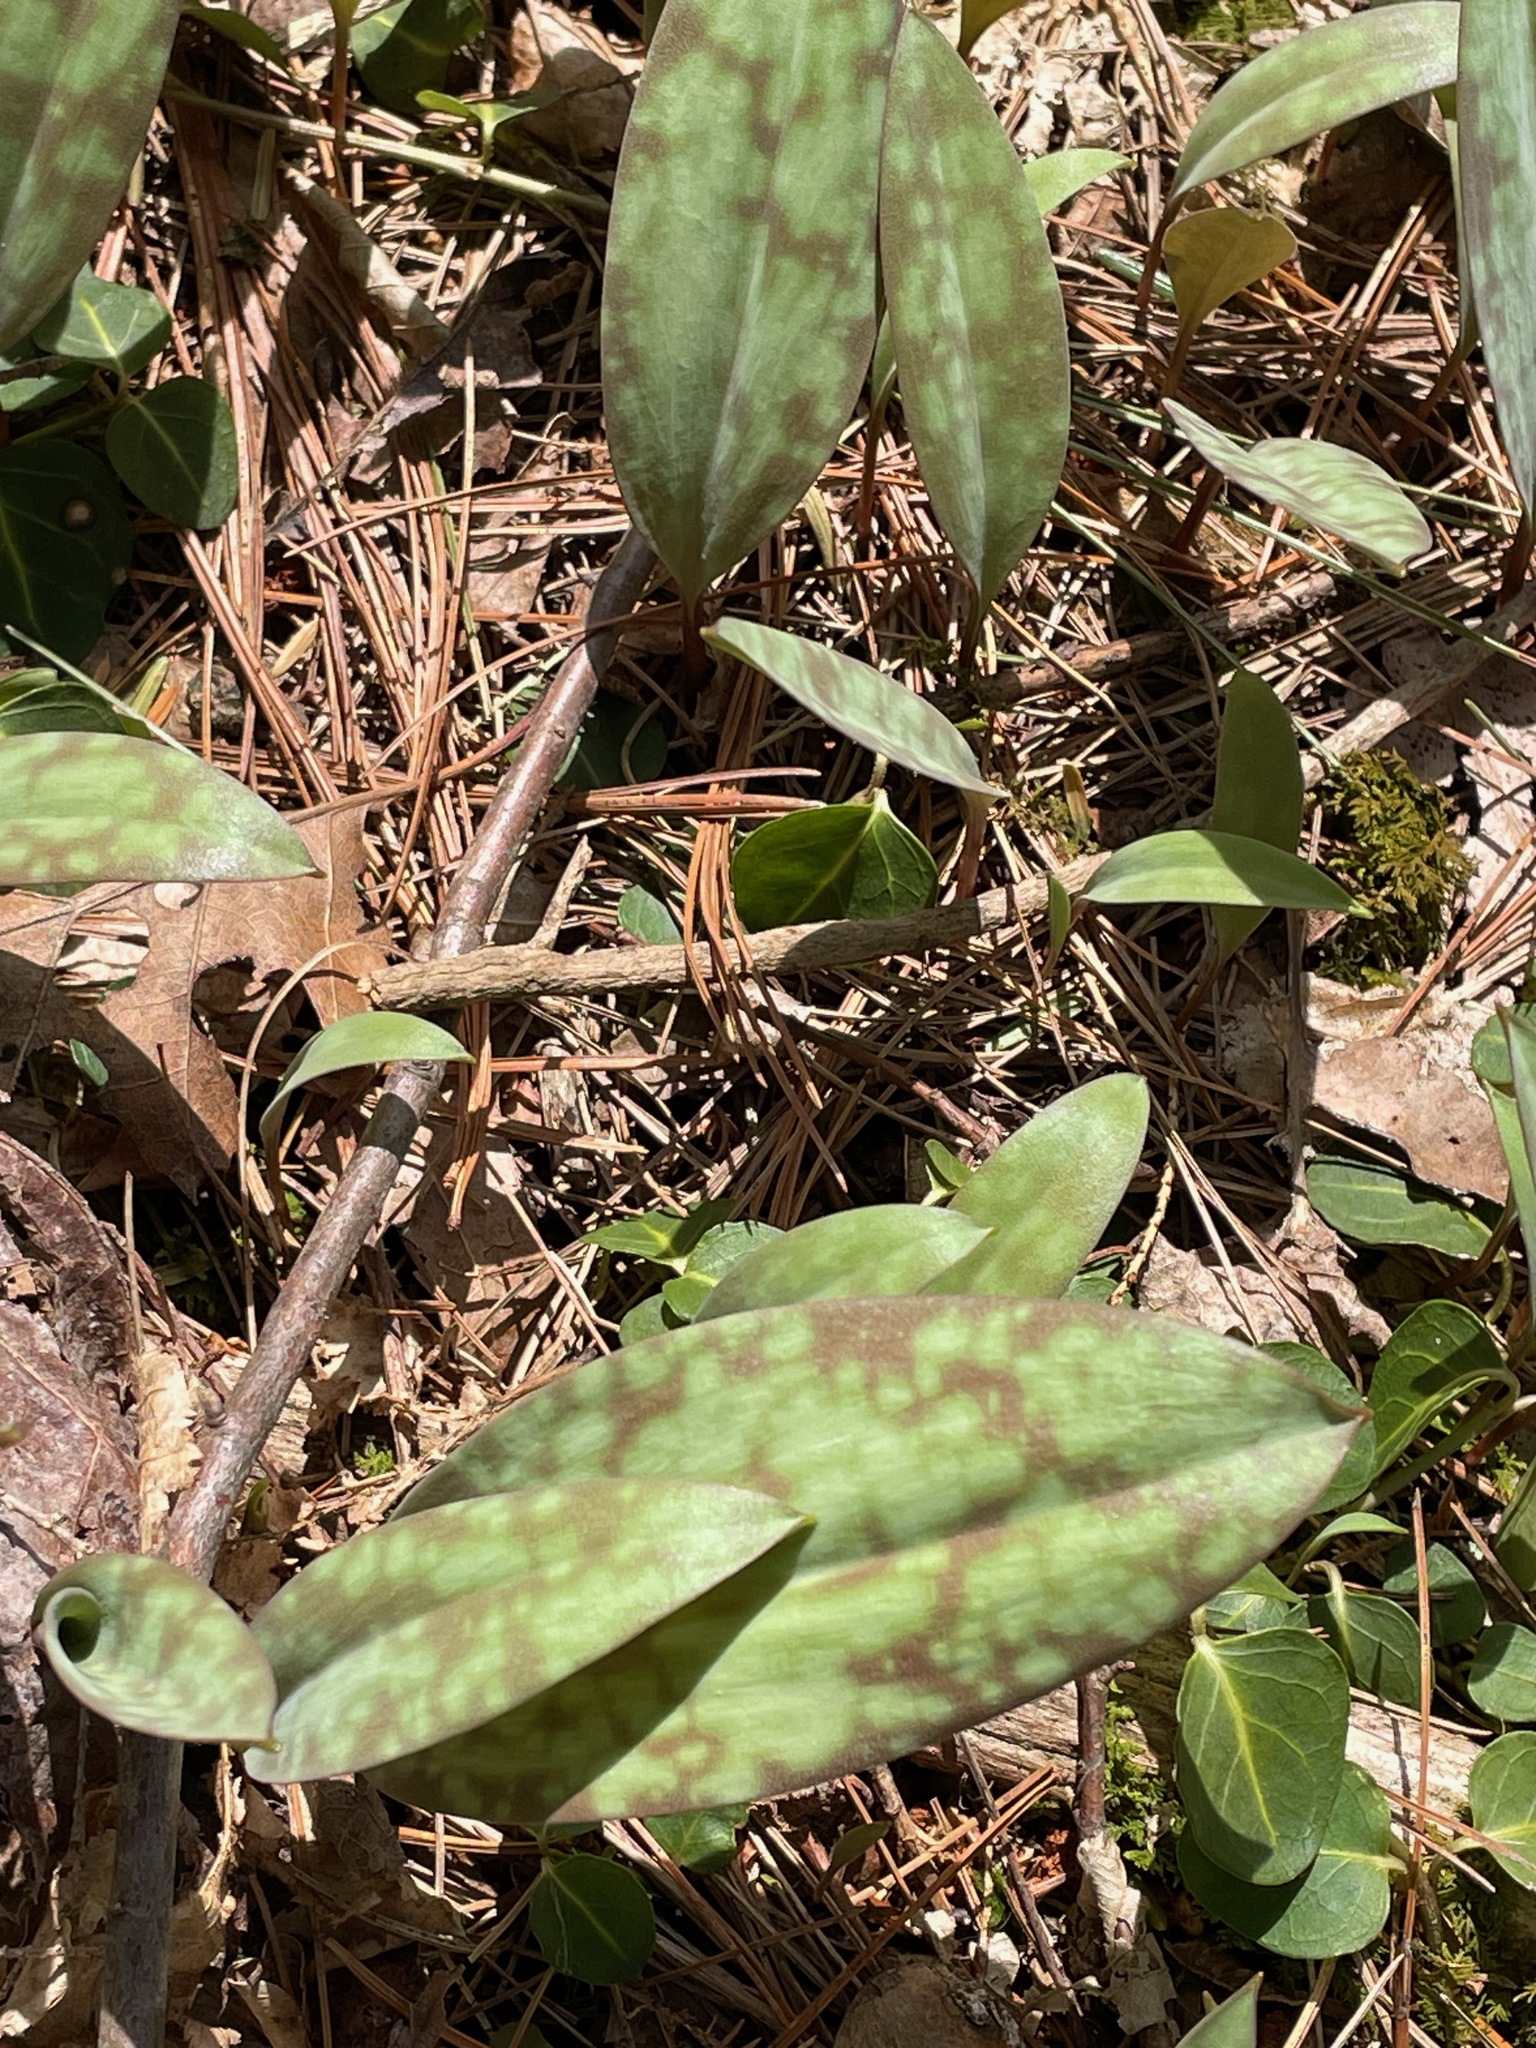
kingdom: Plantae
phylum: Tracheophyta
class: Liliopsida
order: Liliales
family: Liliaceae
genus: Erythronium
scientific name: Erythronium americanum
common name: Yellow adder's-tongue
